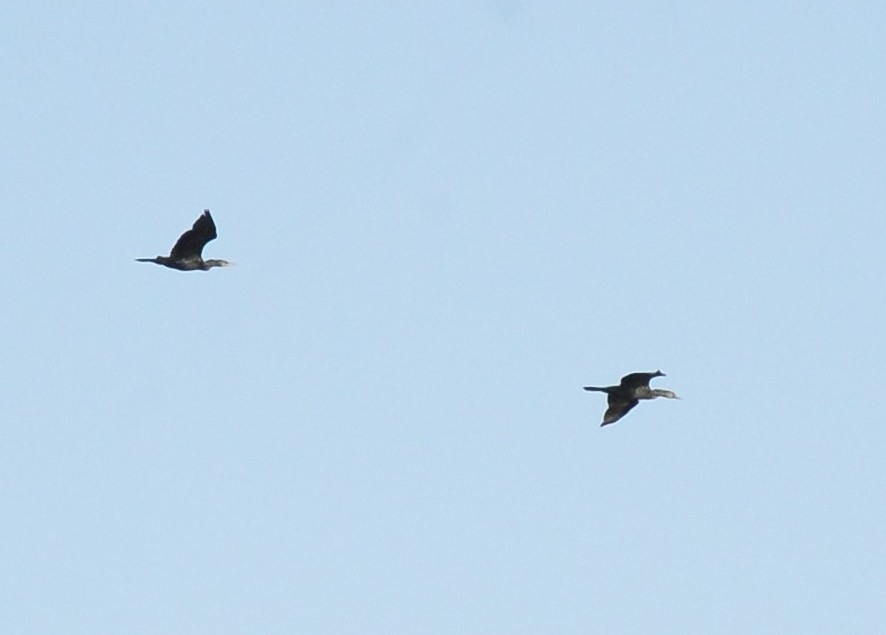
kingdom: Animalia
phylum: Chordata
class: Aves
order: Suliformes
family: Phalacrocoracidae
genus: Phalacrocorax
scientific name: Phalacrocorax fuscicollis
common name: Indian cormorant
